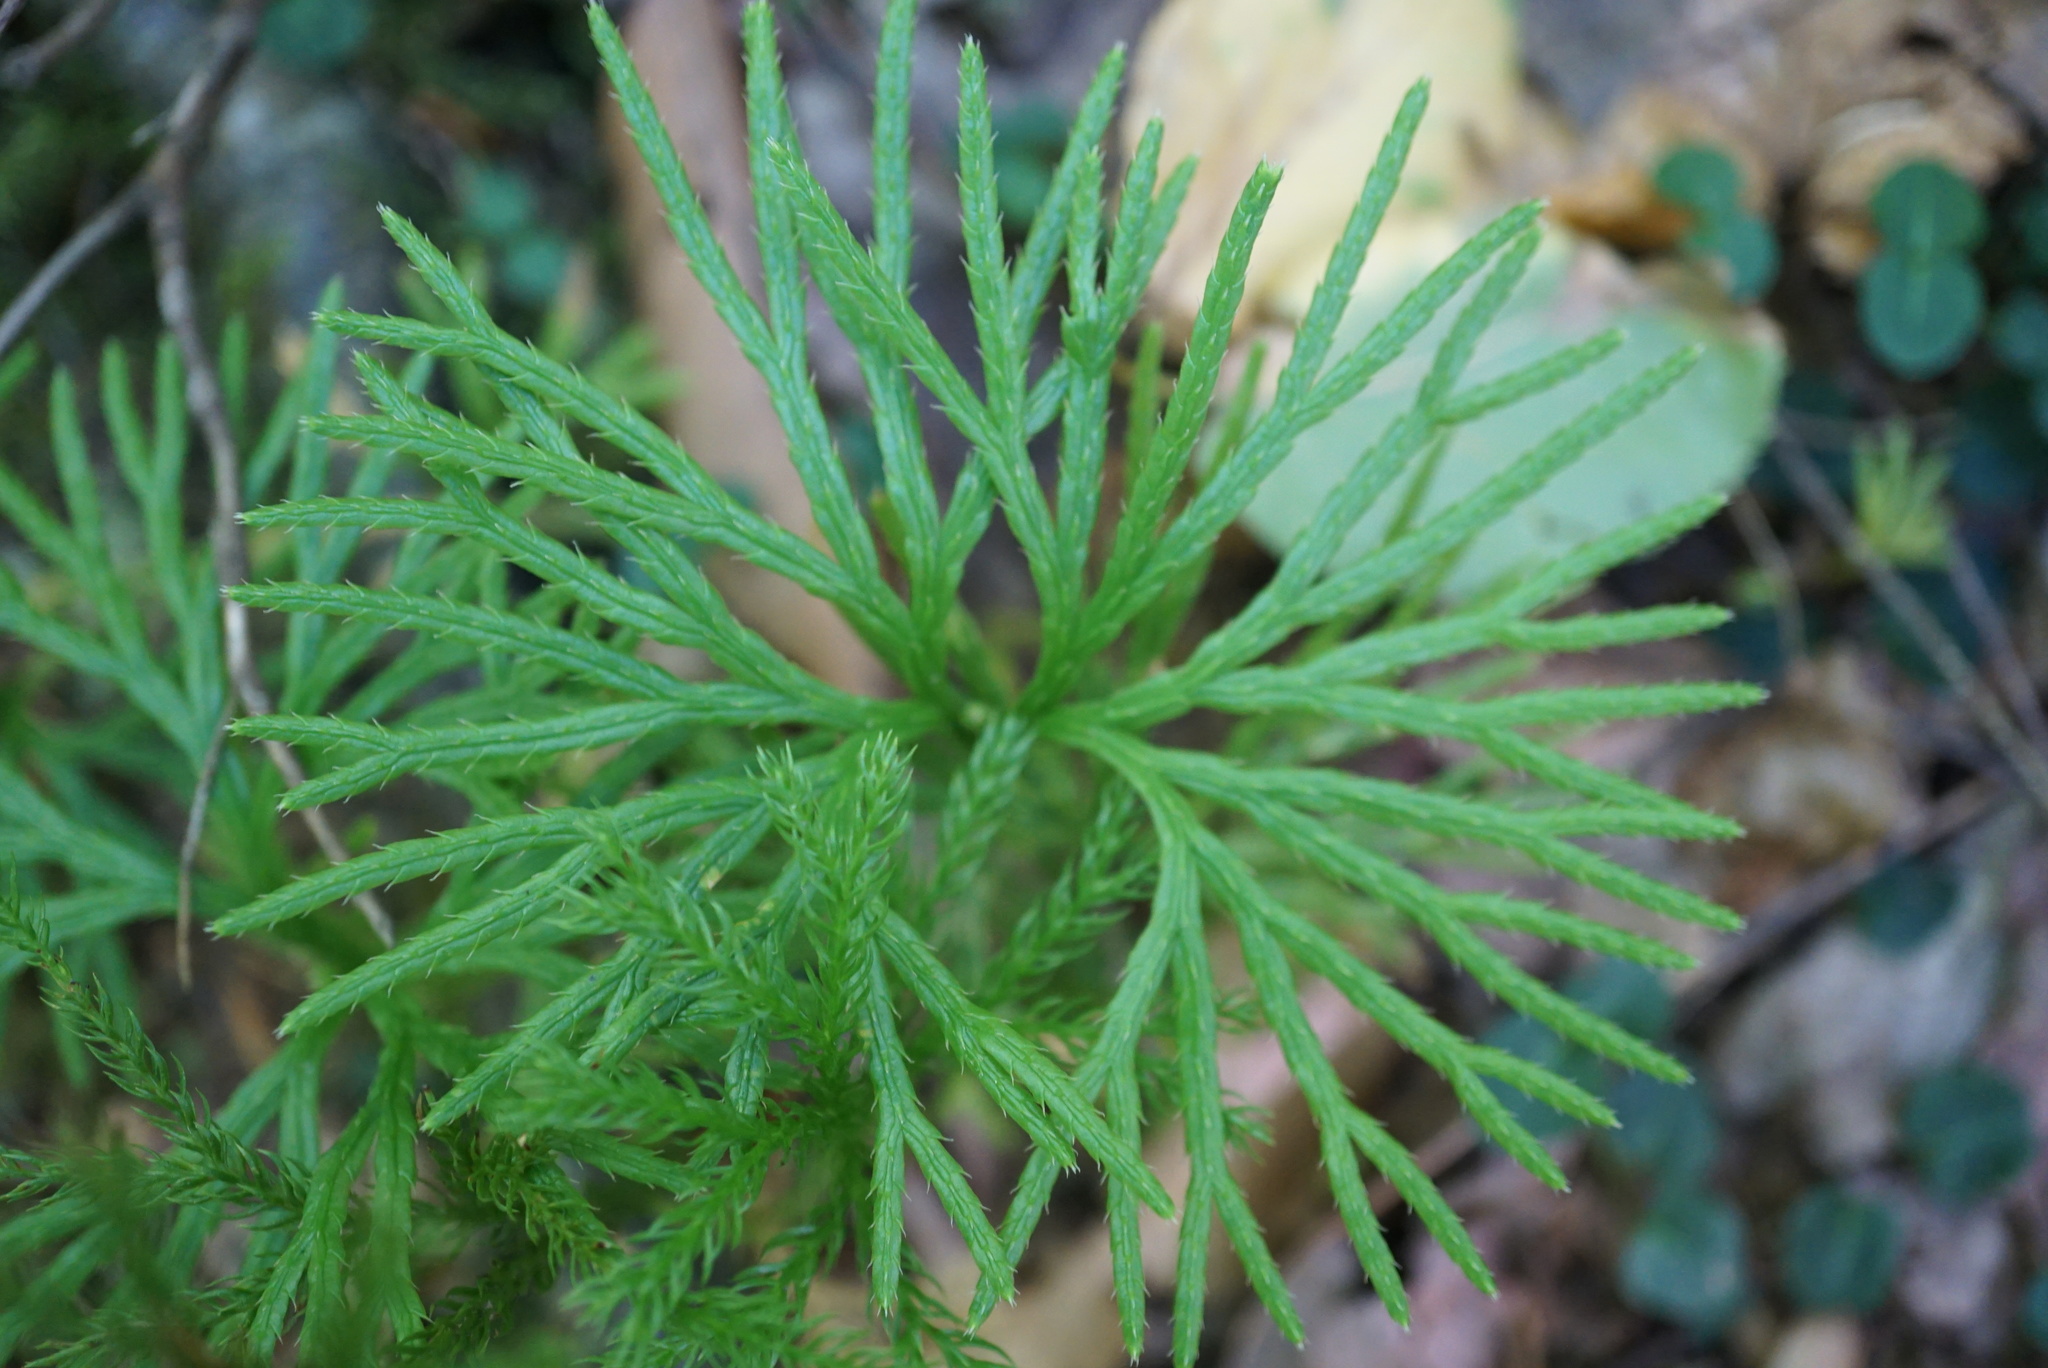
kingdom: Plantae
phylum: Tracheophyta
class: Lycopodiopsida
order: Lycopodiales
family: Lycopodiaceae
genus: Diphasiastrum
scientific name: Diphasiastrum digitatum
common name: Southern running-pine
